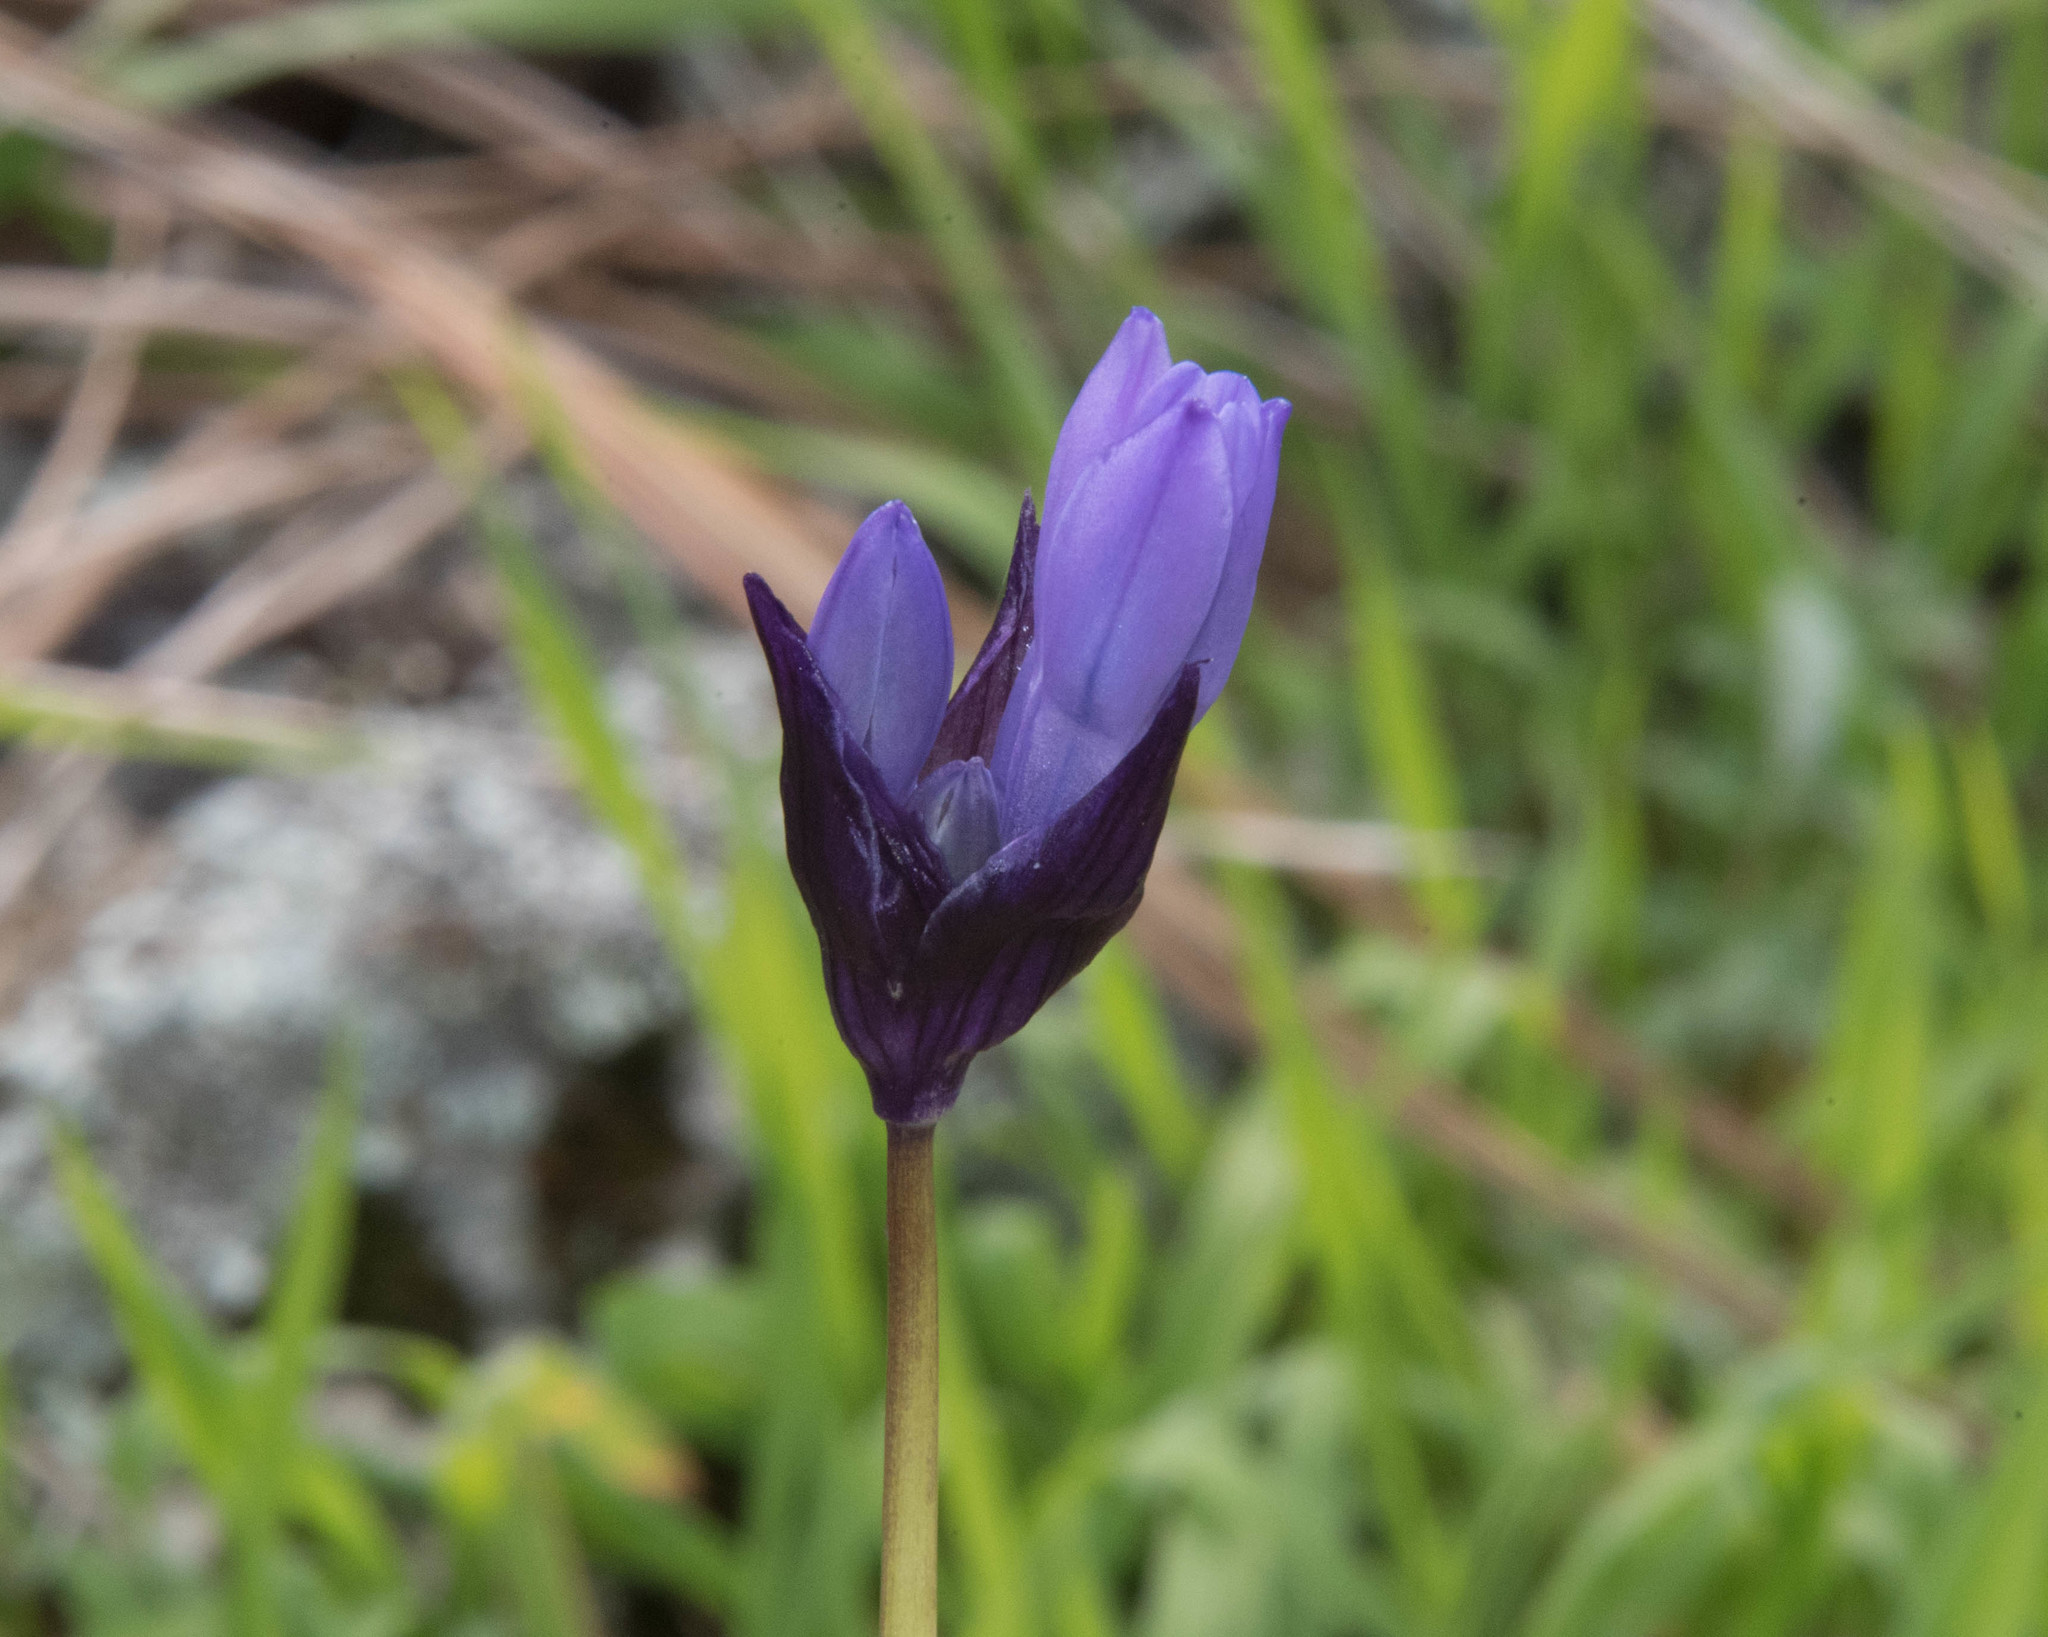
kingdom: Plantae
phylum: Tracheophyta
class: Liliopsida
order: Asparagales
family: Asparagaceae
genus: Dipterostemon
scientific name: Dipterostemon capitatus
